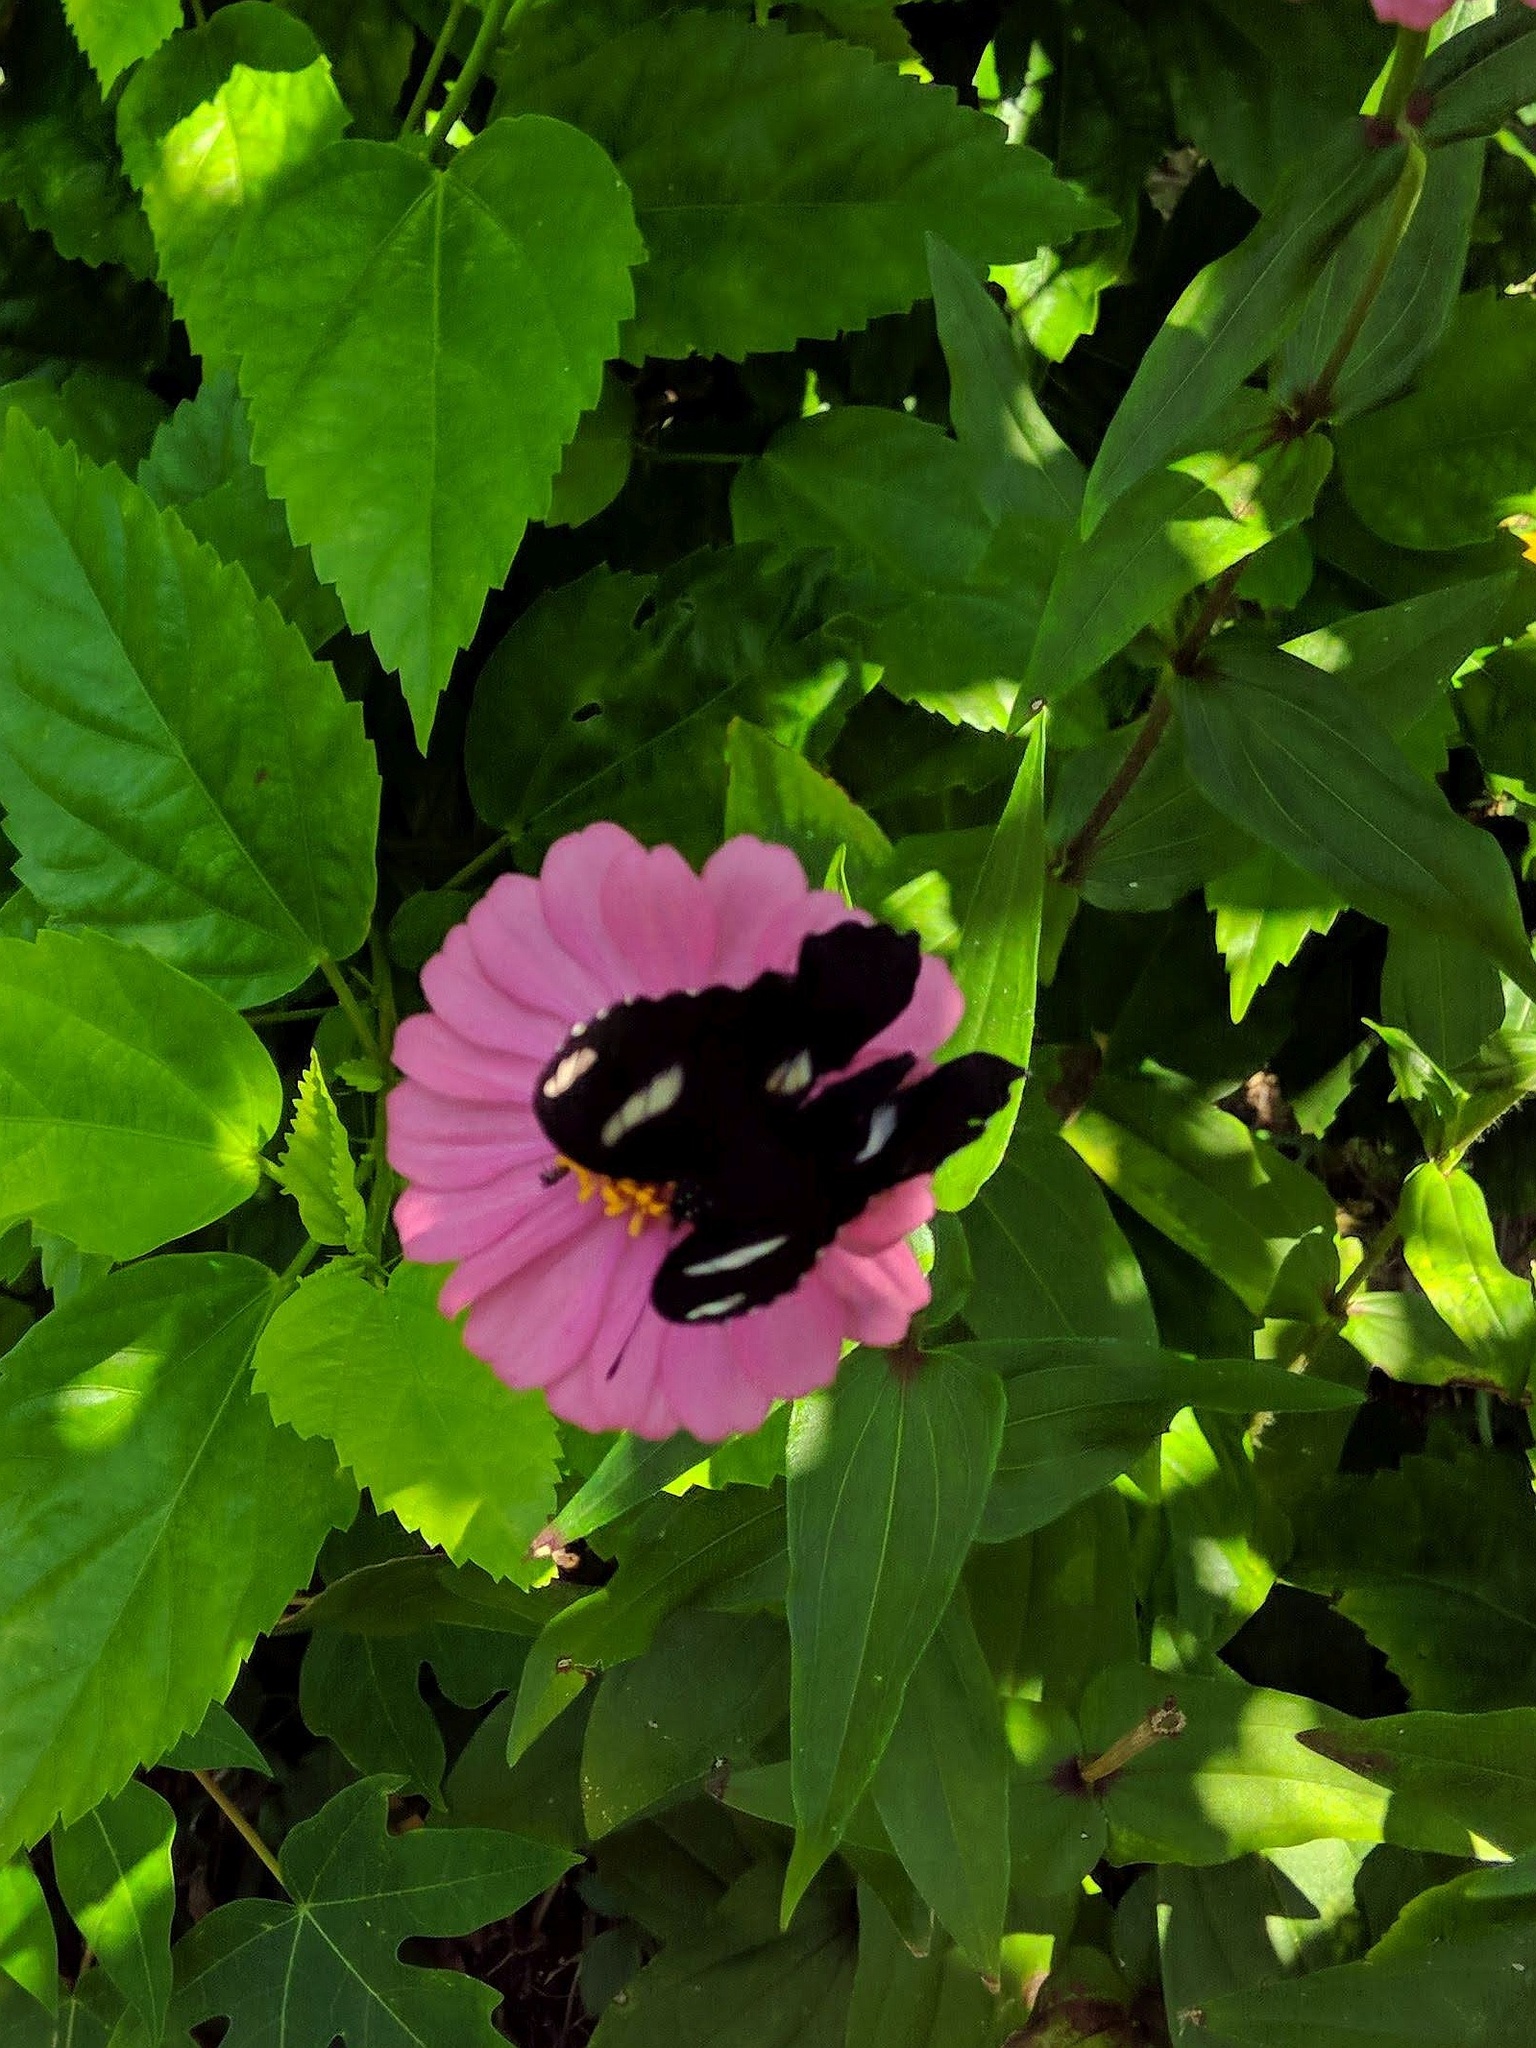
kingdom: Animalia
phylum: Arthropoda
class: Insecta
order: Lepidoptera
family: Nymphalidae
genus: Hypolimnas
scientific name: Hypolimnas bolina
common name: Great eggfly
